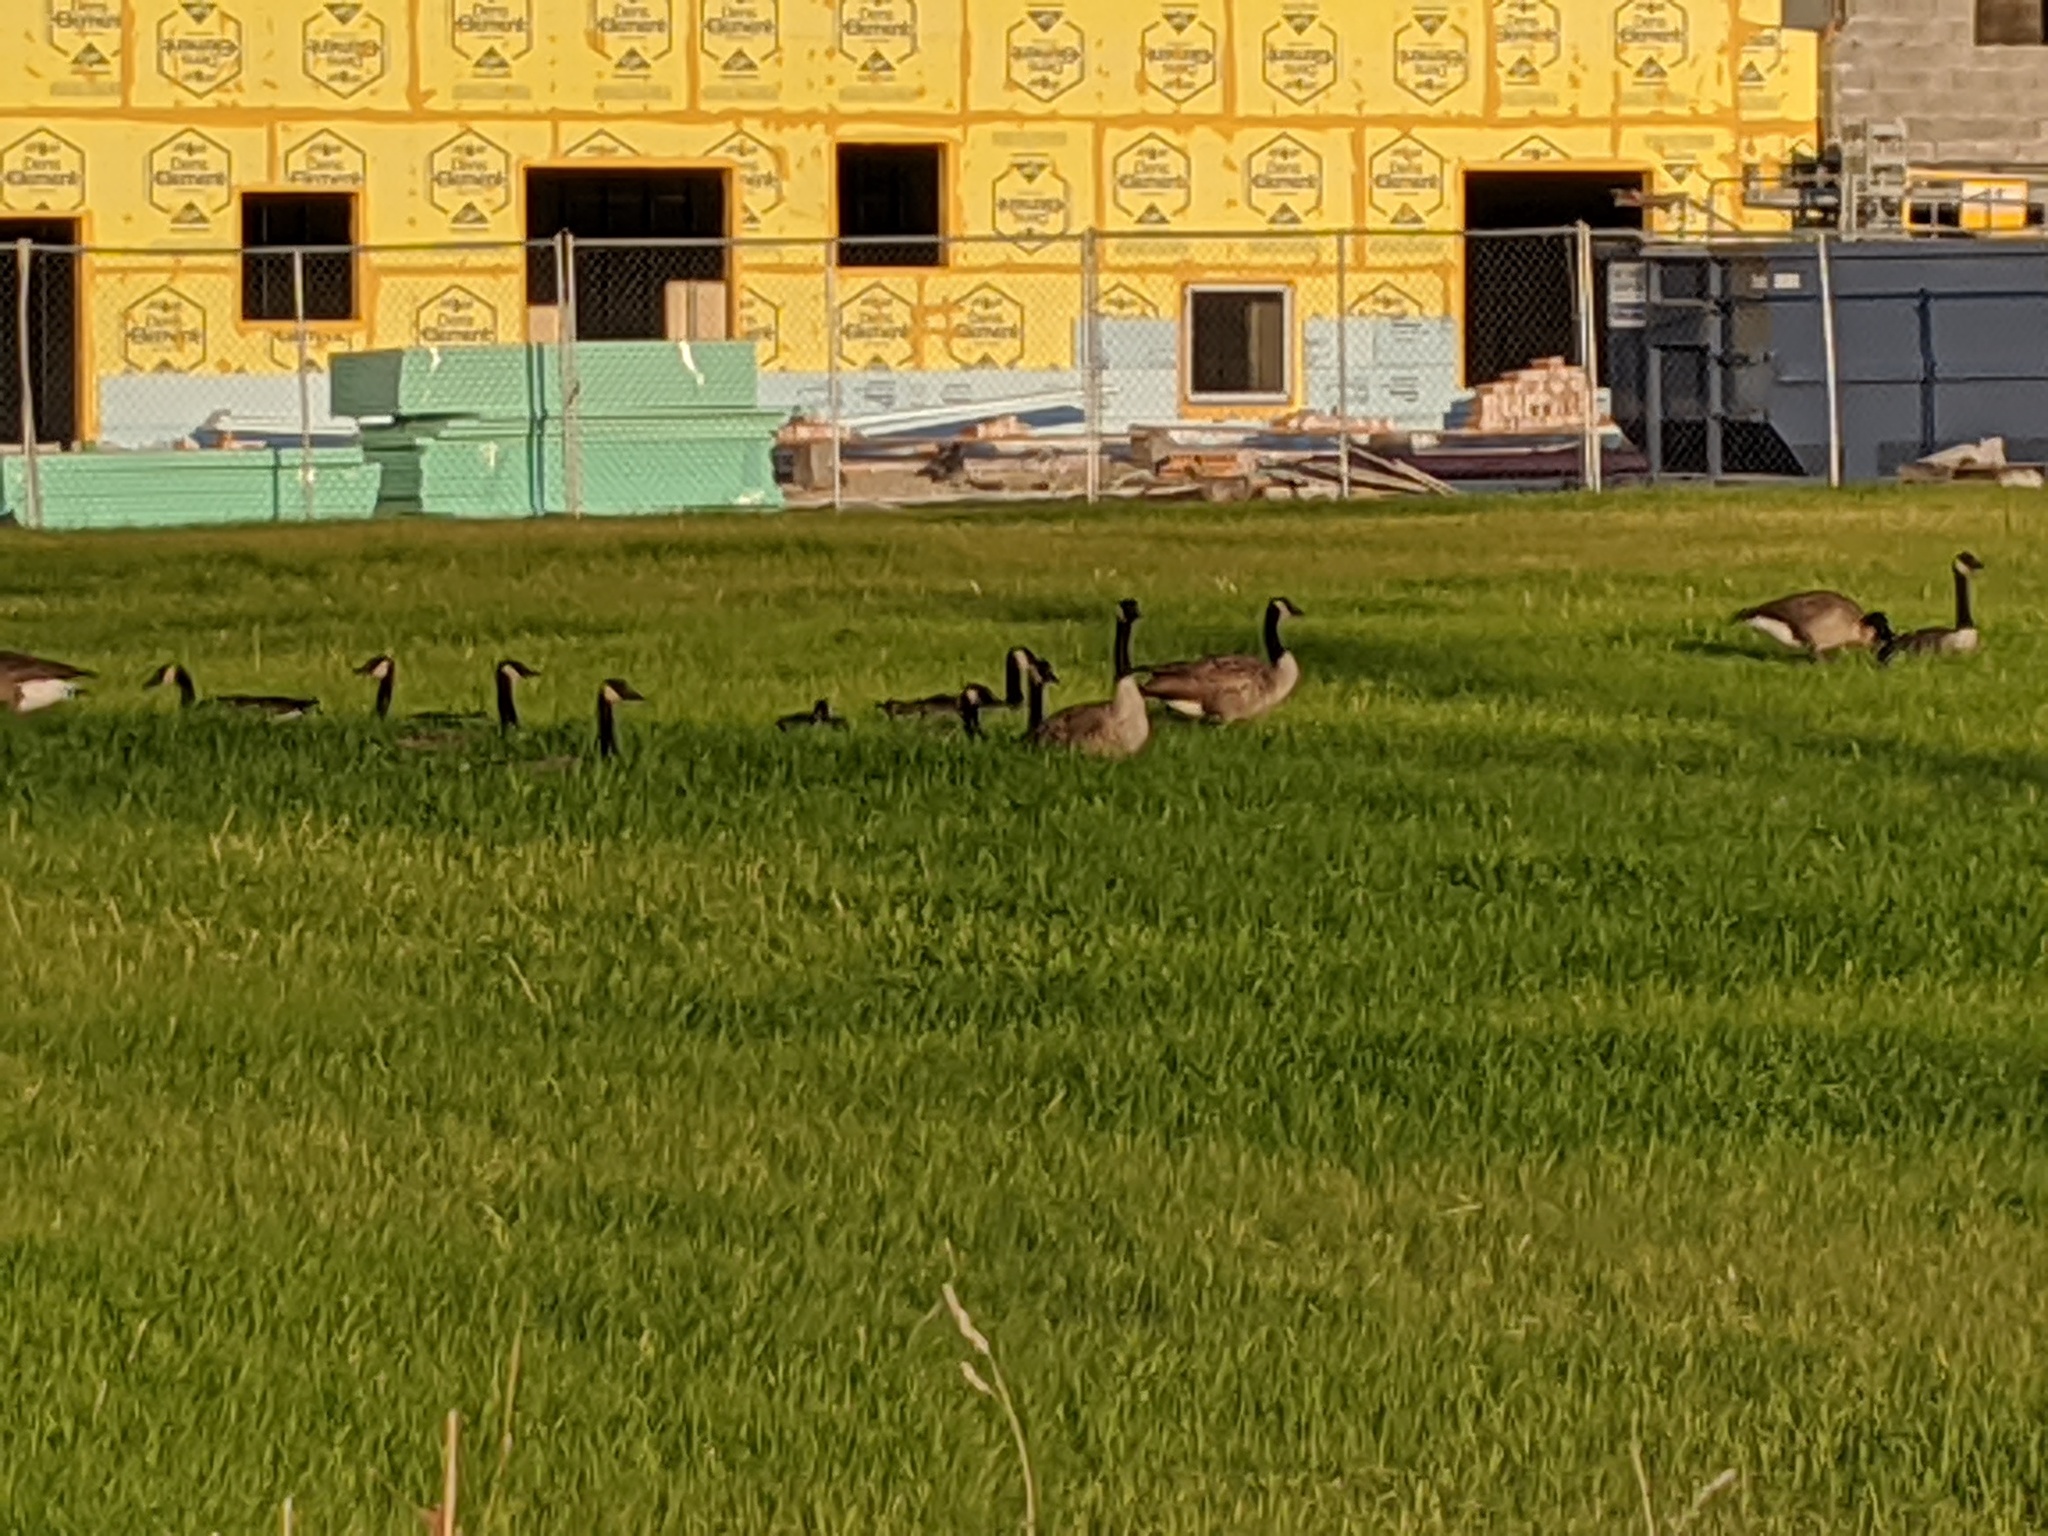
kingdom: Animalia
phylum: Chordata
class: Aves
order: Anseriformes
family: Anatidae
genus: Branta
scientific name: Branta canadensis
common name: Canada goose
